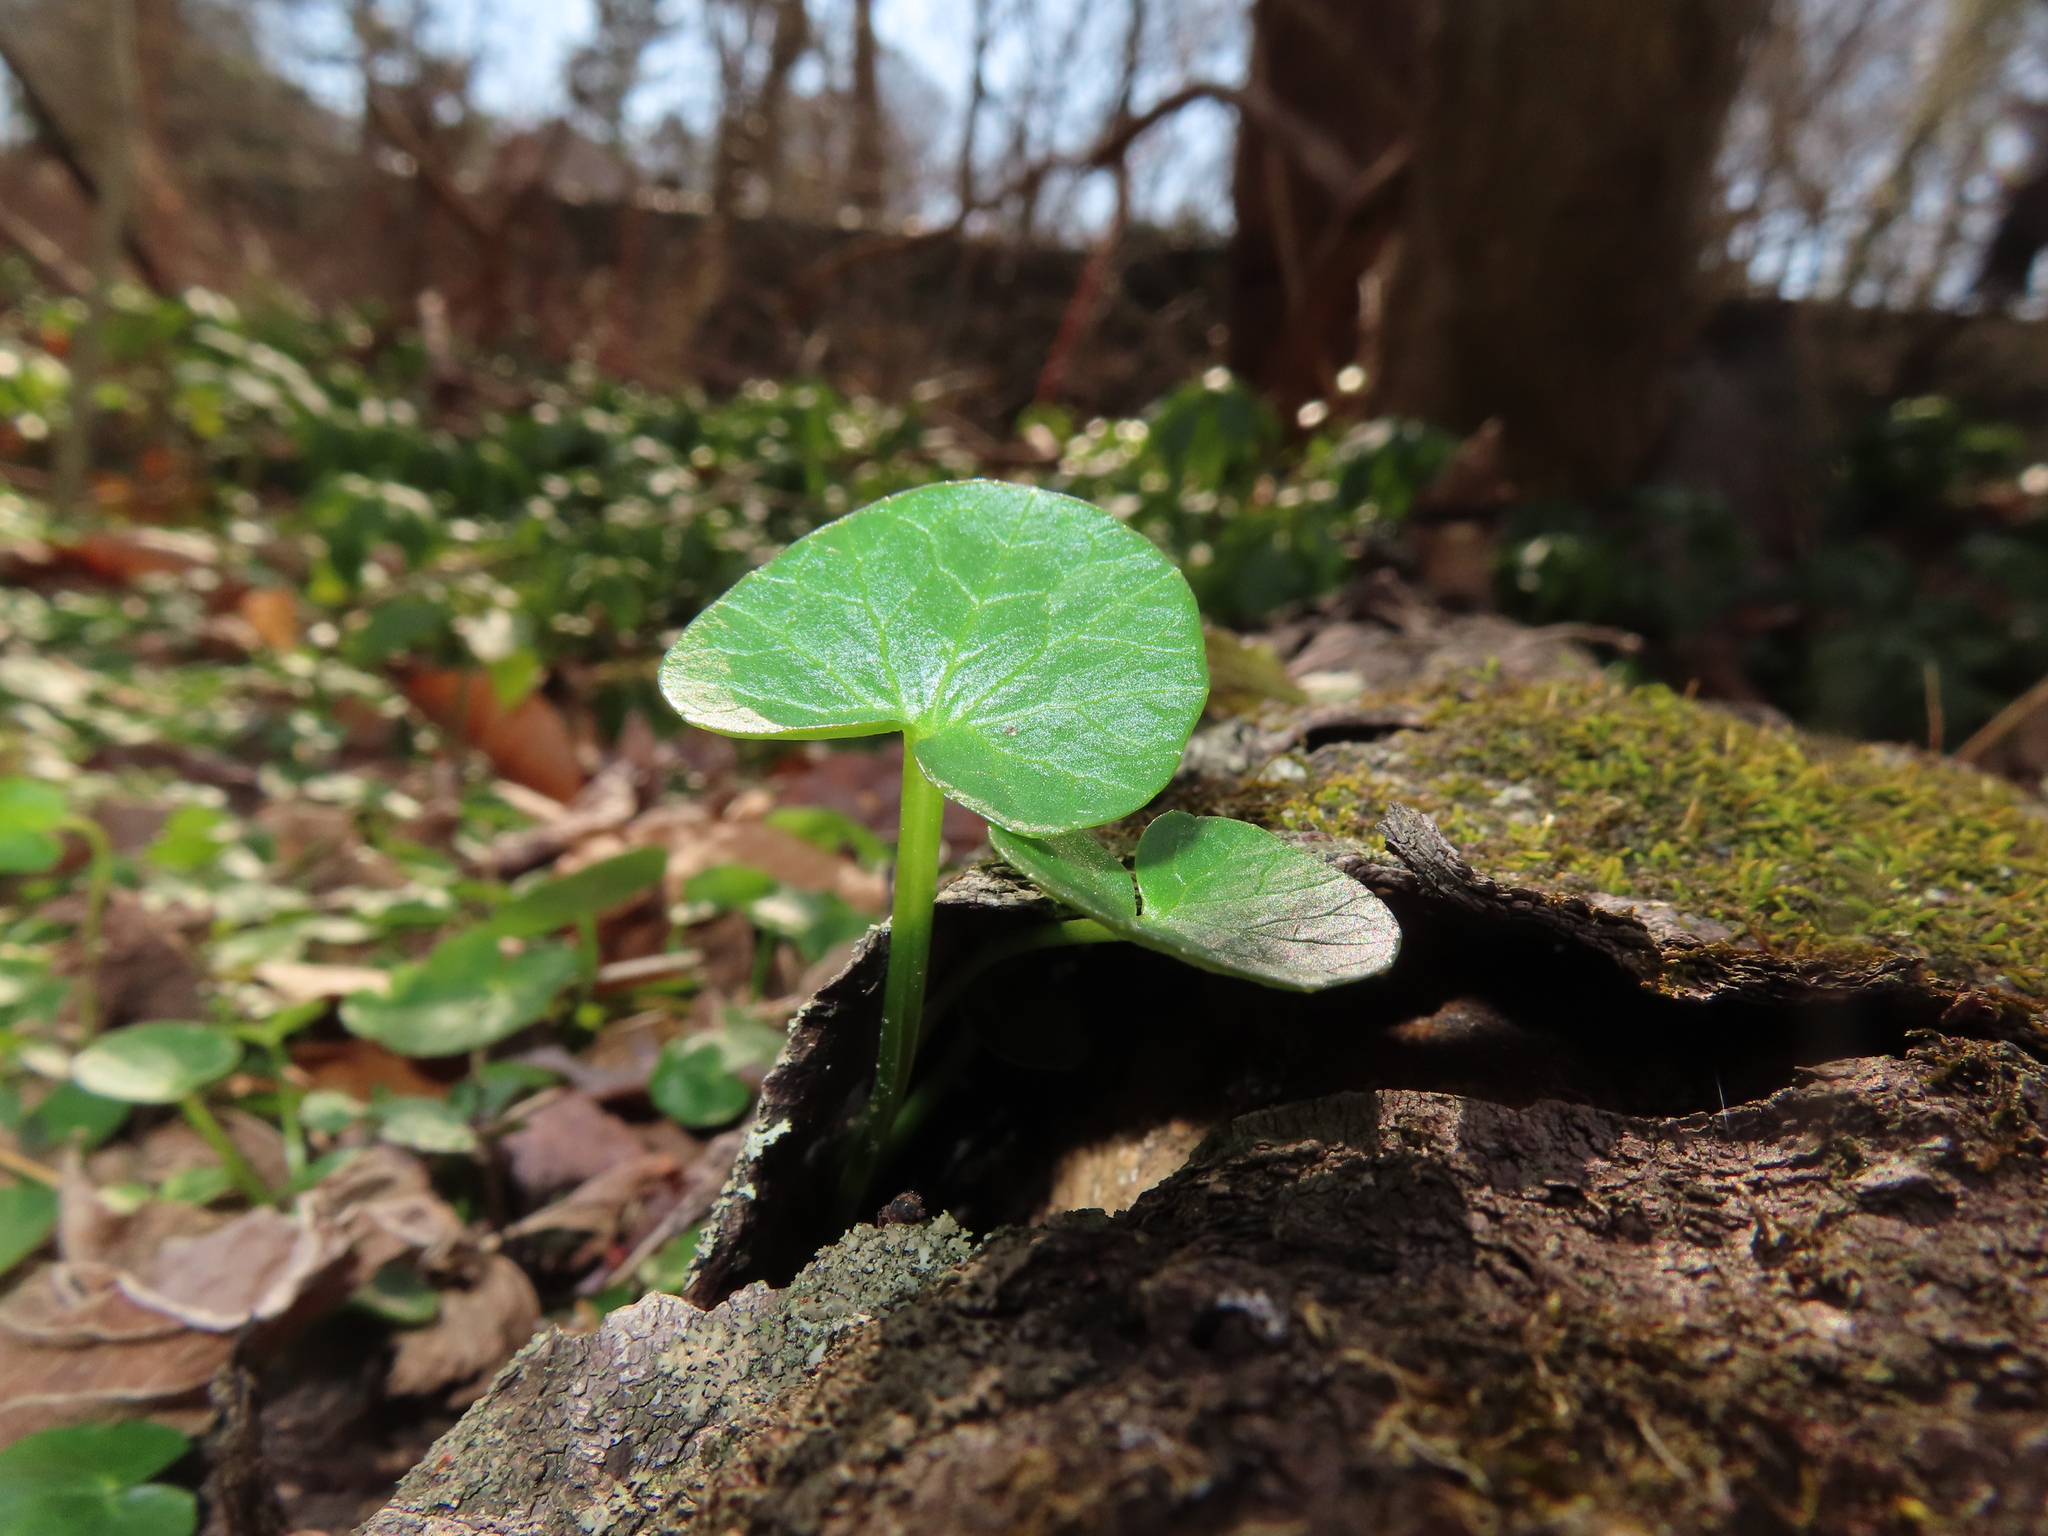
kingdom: Plantae
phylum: Tracheophyta
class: Magnoliopsida
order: Ranunculales
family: Ranunculaceae
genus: Ficaria
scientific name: Ficaria verna
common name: Lesser celandine
